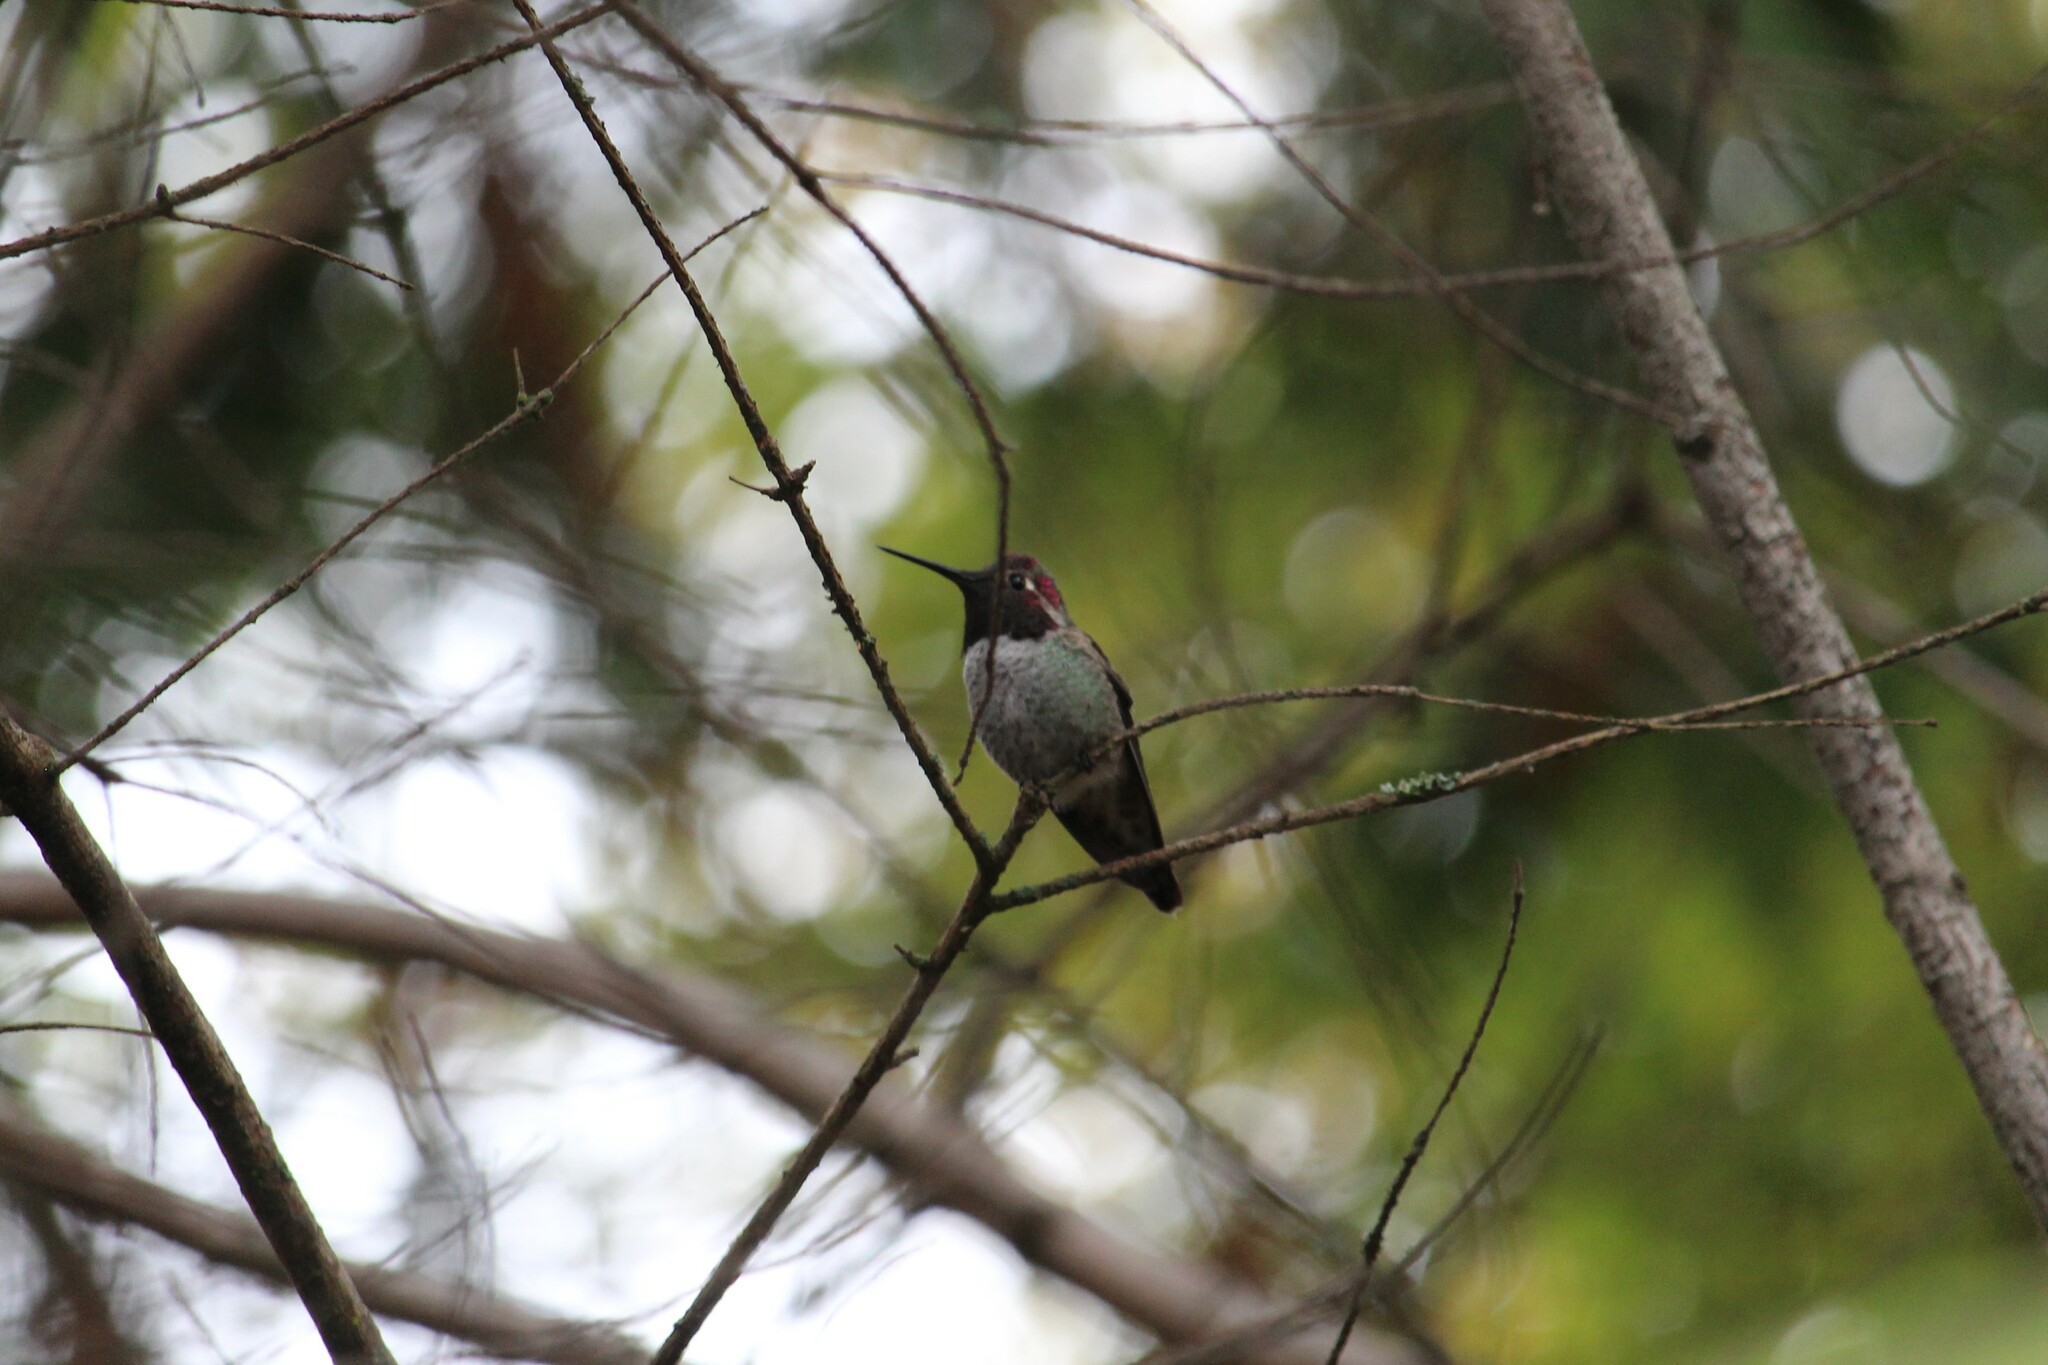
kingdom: Animalia
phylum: Chordata
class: Aves
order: Apodiformes
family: Trochilidae
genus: Calypte
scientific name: Calypte anna
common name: Anna's hummingbird
